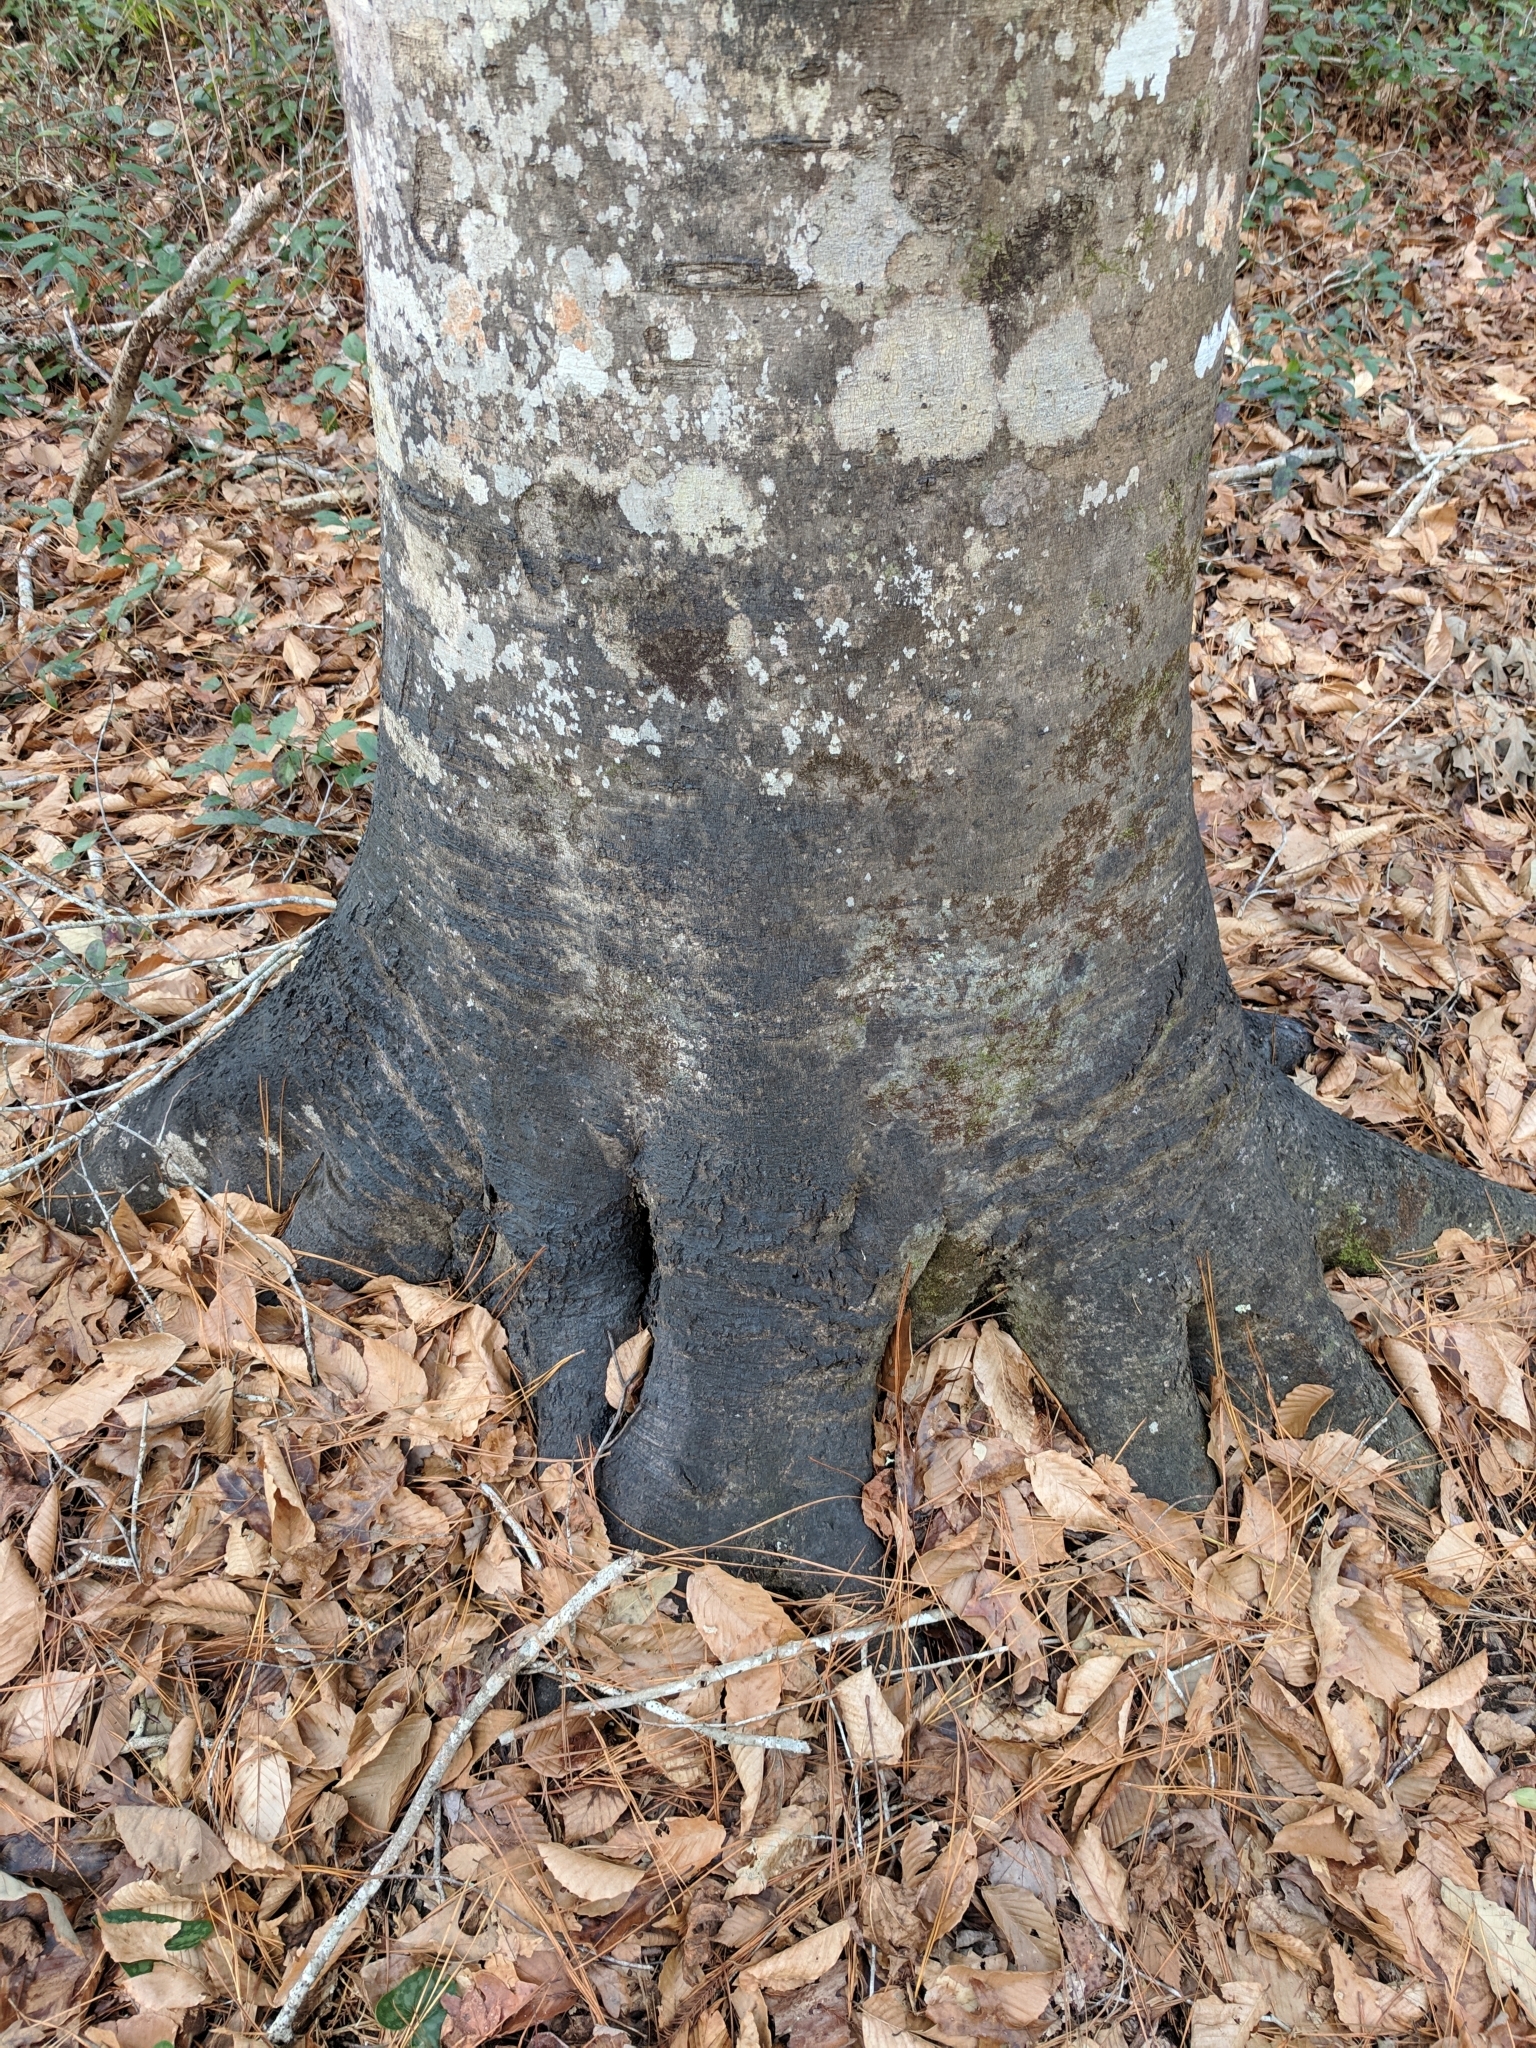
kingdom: Plantae
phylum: Tracheophyta
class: Magnoliopsida
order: Fagales
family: Fagaceae
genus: Fagus
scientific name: Fagus grandifolia
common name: American beech
